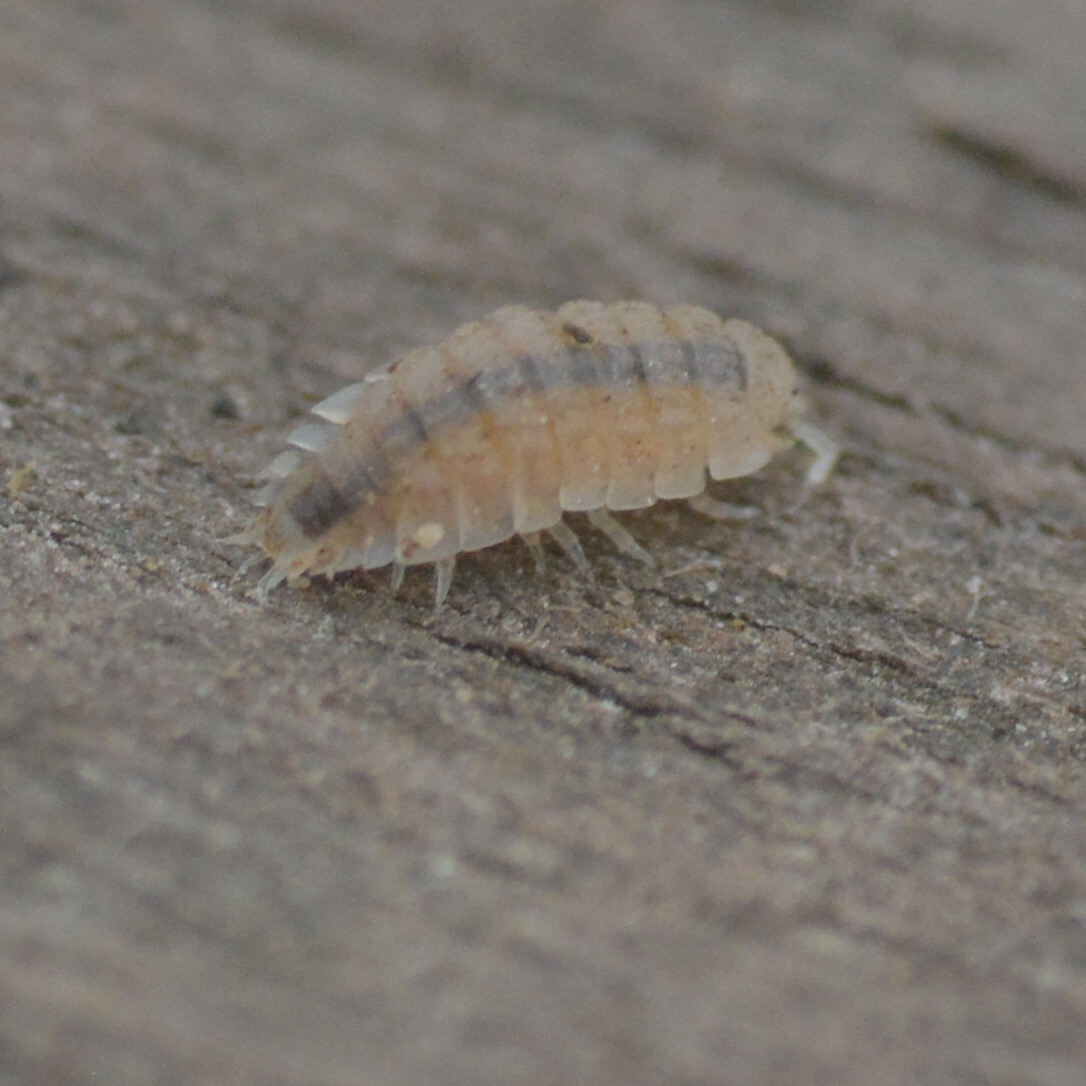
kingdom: Animalia
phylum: Arthropoda
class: Malacostraca
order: Isopoda
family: Trichoniscidae
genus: Haplophthalmus
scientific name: Haplophthalmus danicus
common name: Pillbug
